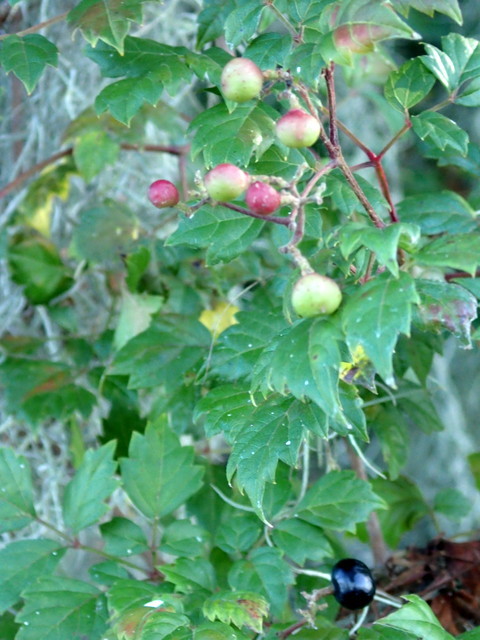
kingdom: Plantae
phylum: Tracheophyta
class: Magnoliopsida
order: Vitales
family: Vitaceae
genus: Nekemias
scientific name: Nekemias arborea
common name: Peppervine
